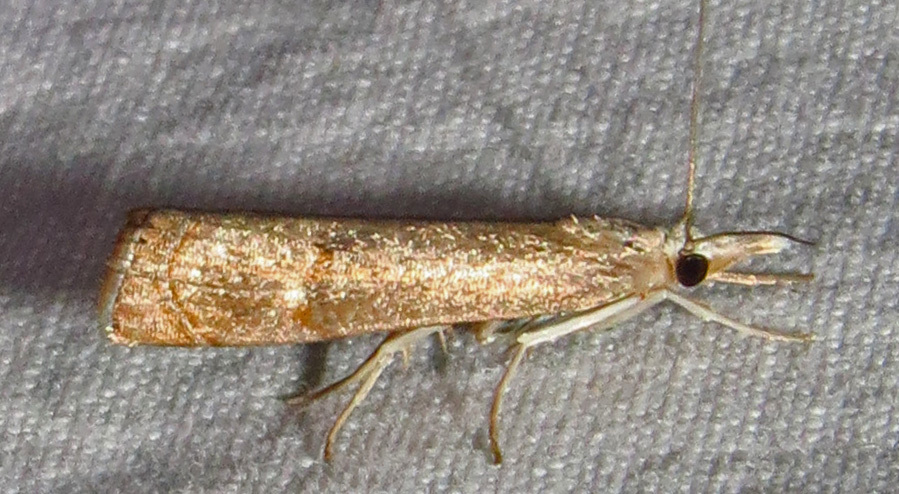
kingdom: Animalia
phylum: Arthropoda
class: Insecta
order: Lepidoptera
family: Crambidae
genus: Parapediasia
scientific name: Parapediasia teterellus
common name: Bluegrass webworm moth
